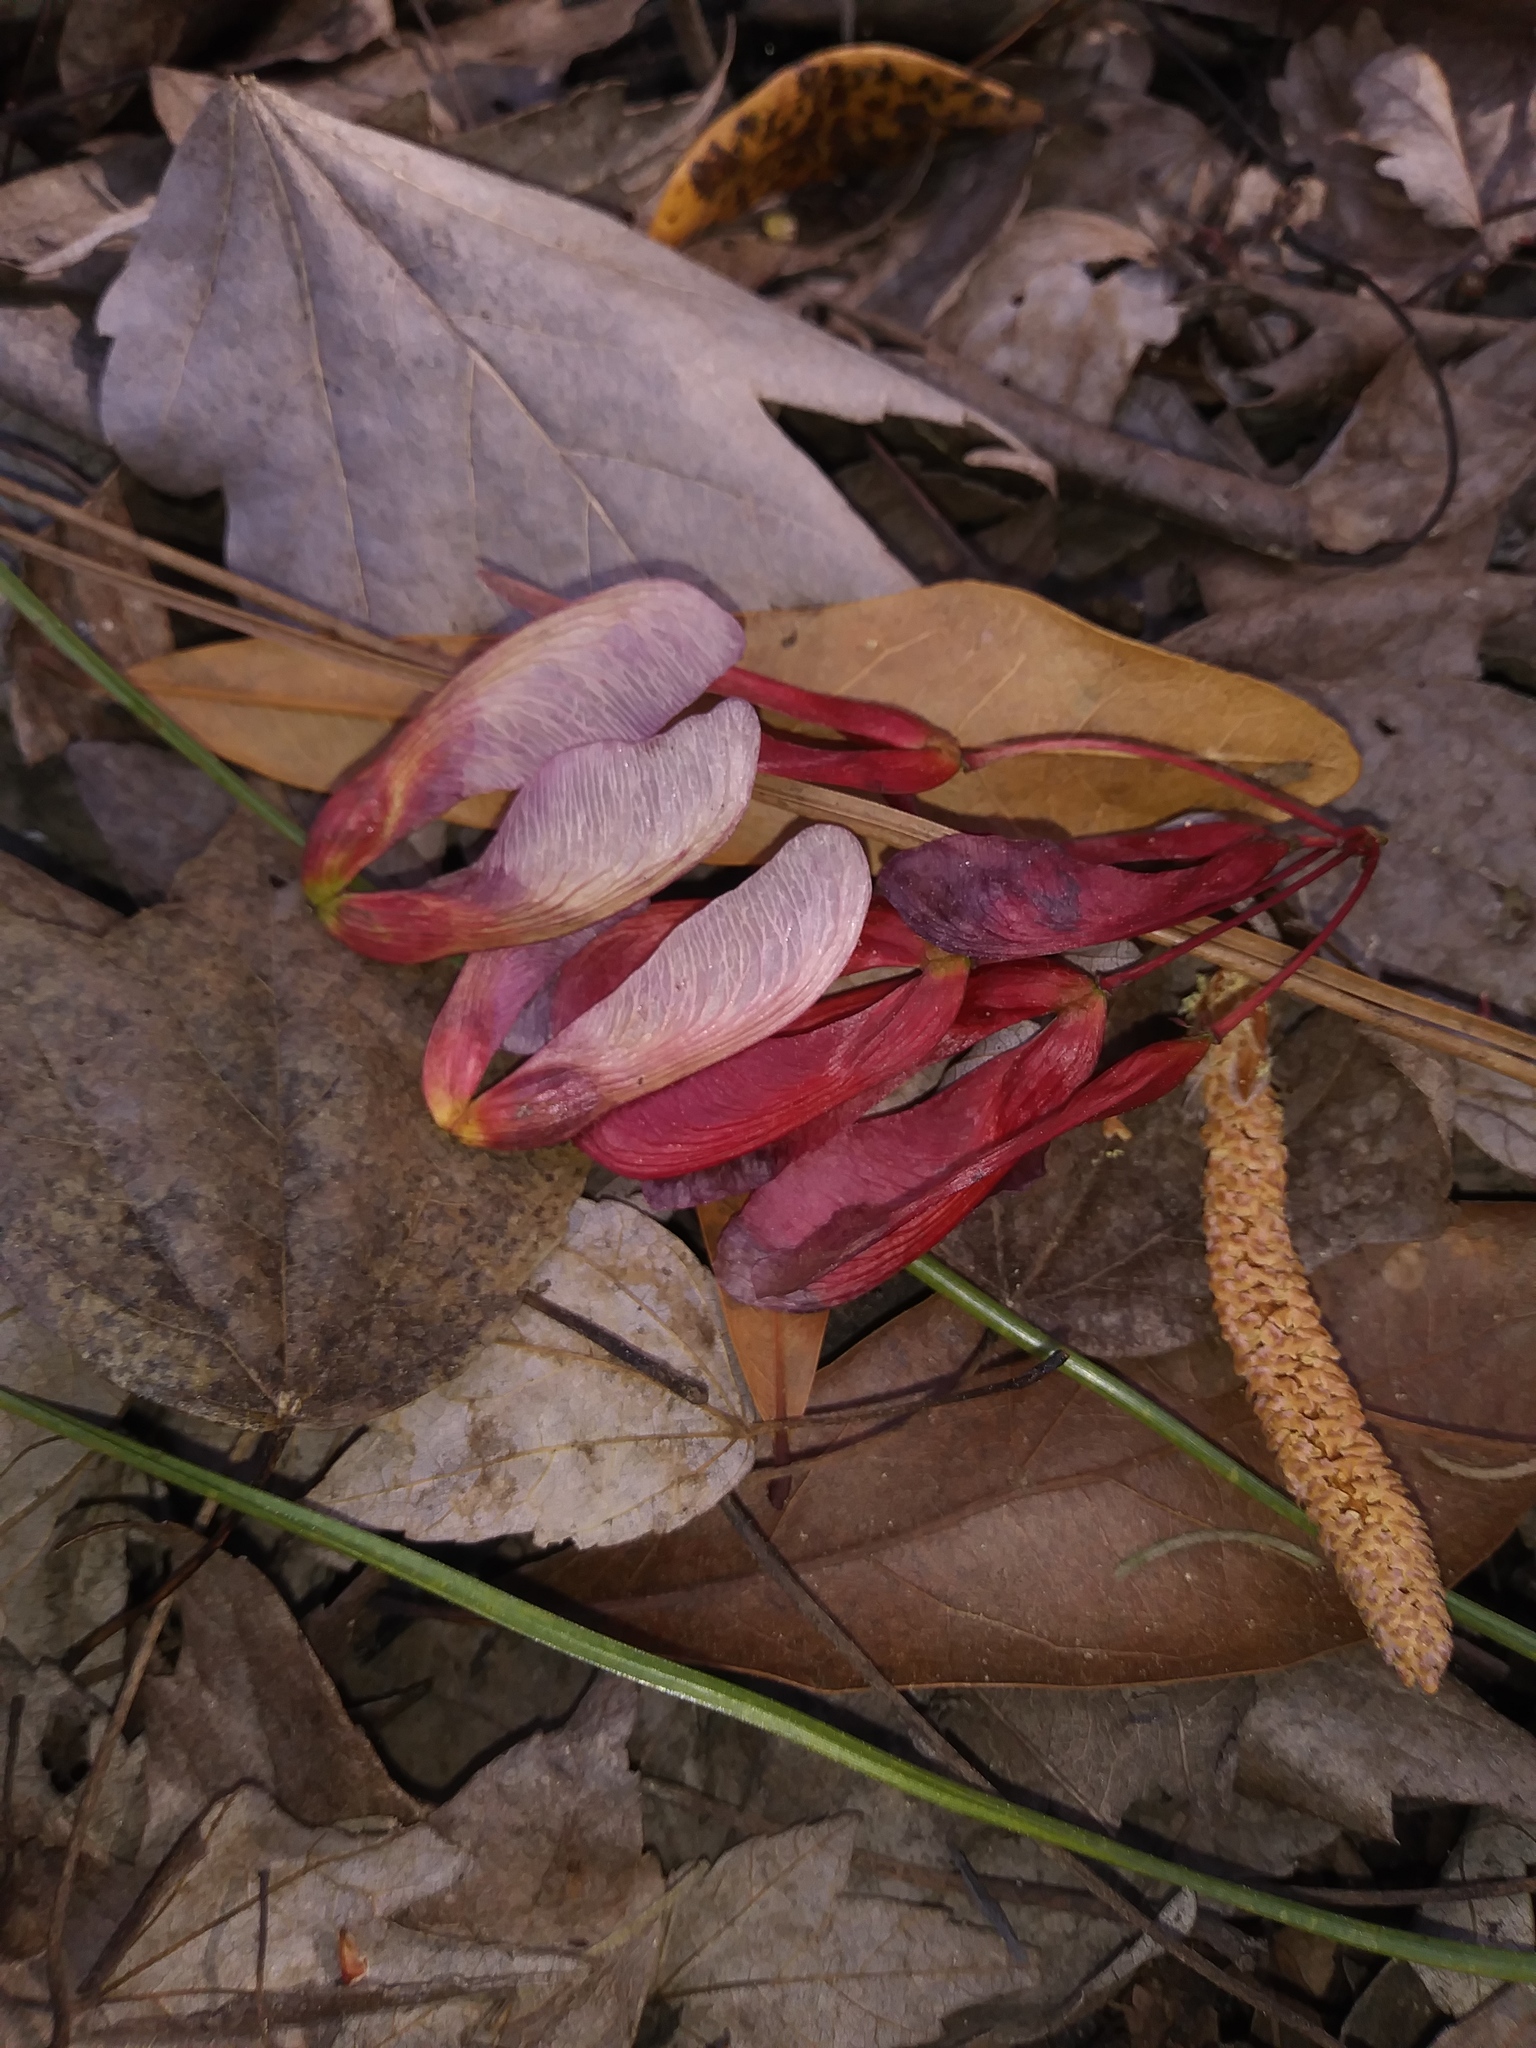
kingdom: Plantae
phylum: Tracheophyta
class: Magnoliopsida
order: Sapindales
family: Sapindaceae
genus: Acer
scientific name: Acer rubrum
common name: Red maple
